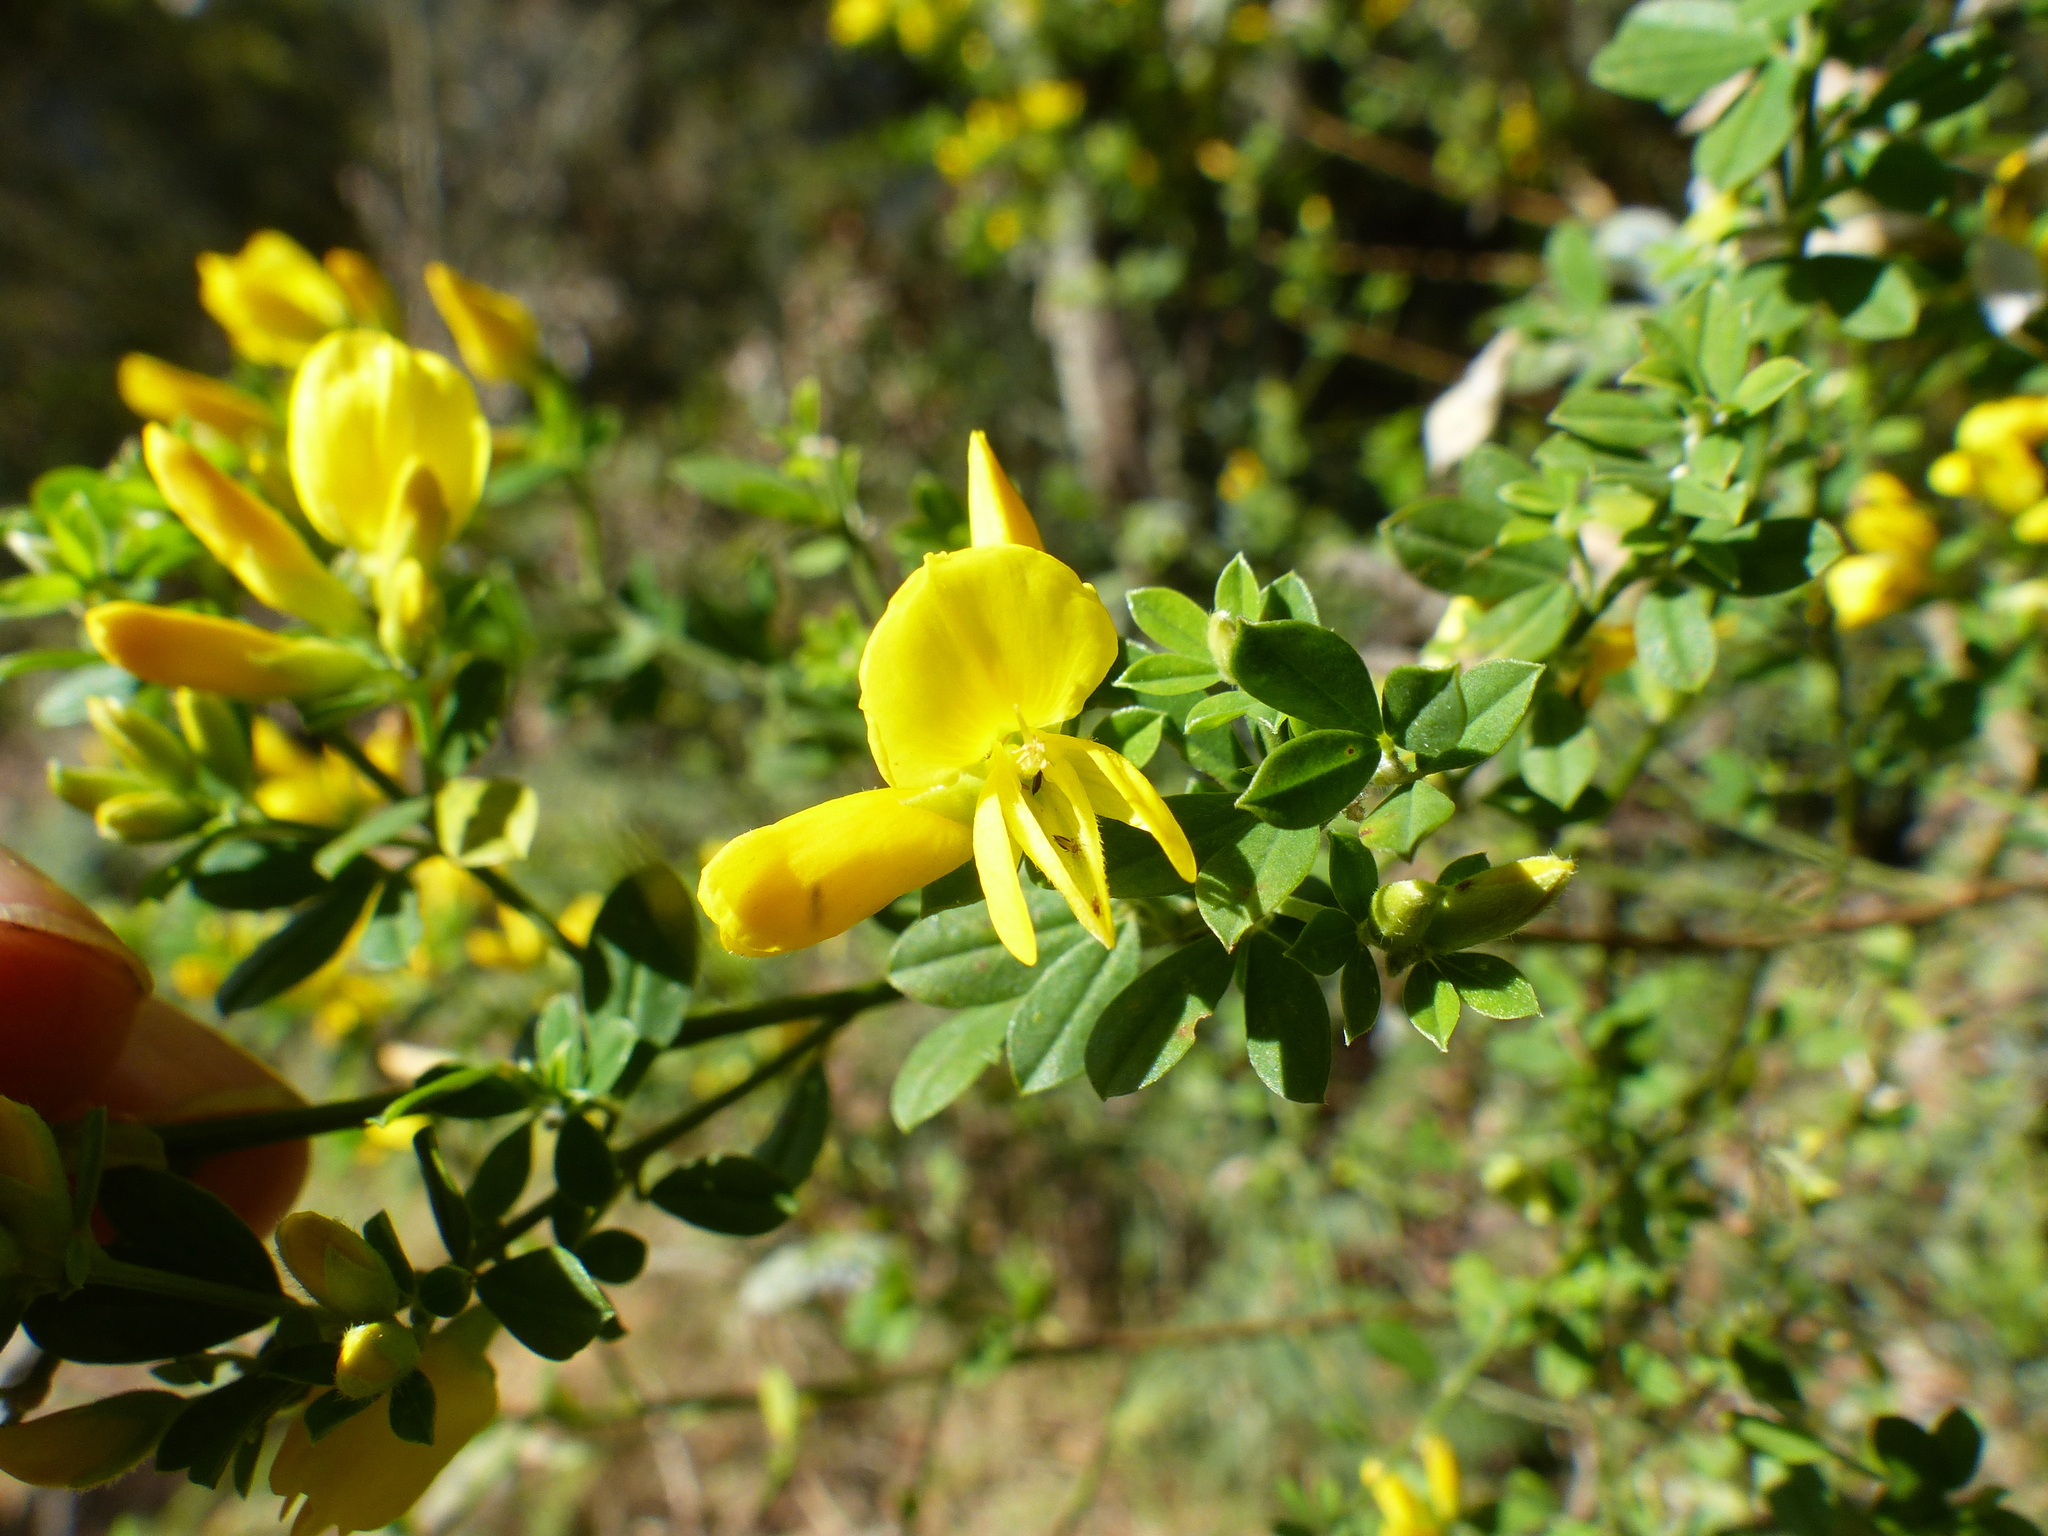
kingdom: Plantae
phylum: Tracheophyta
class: Magnoliopsida
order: Fabales
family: Fabaceae
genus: Genista
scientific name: Genista monspessulana
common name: Montpellier broom
